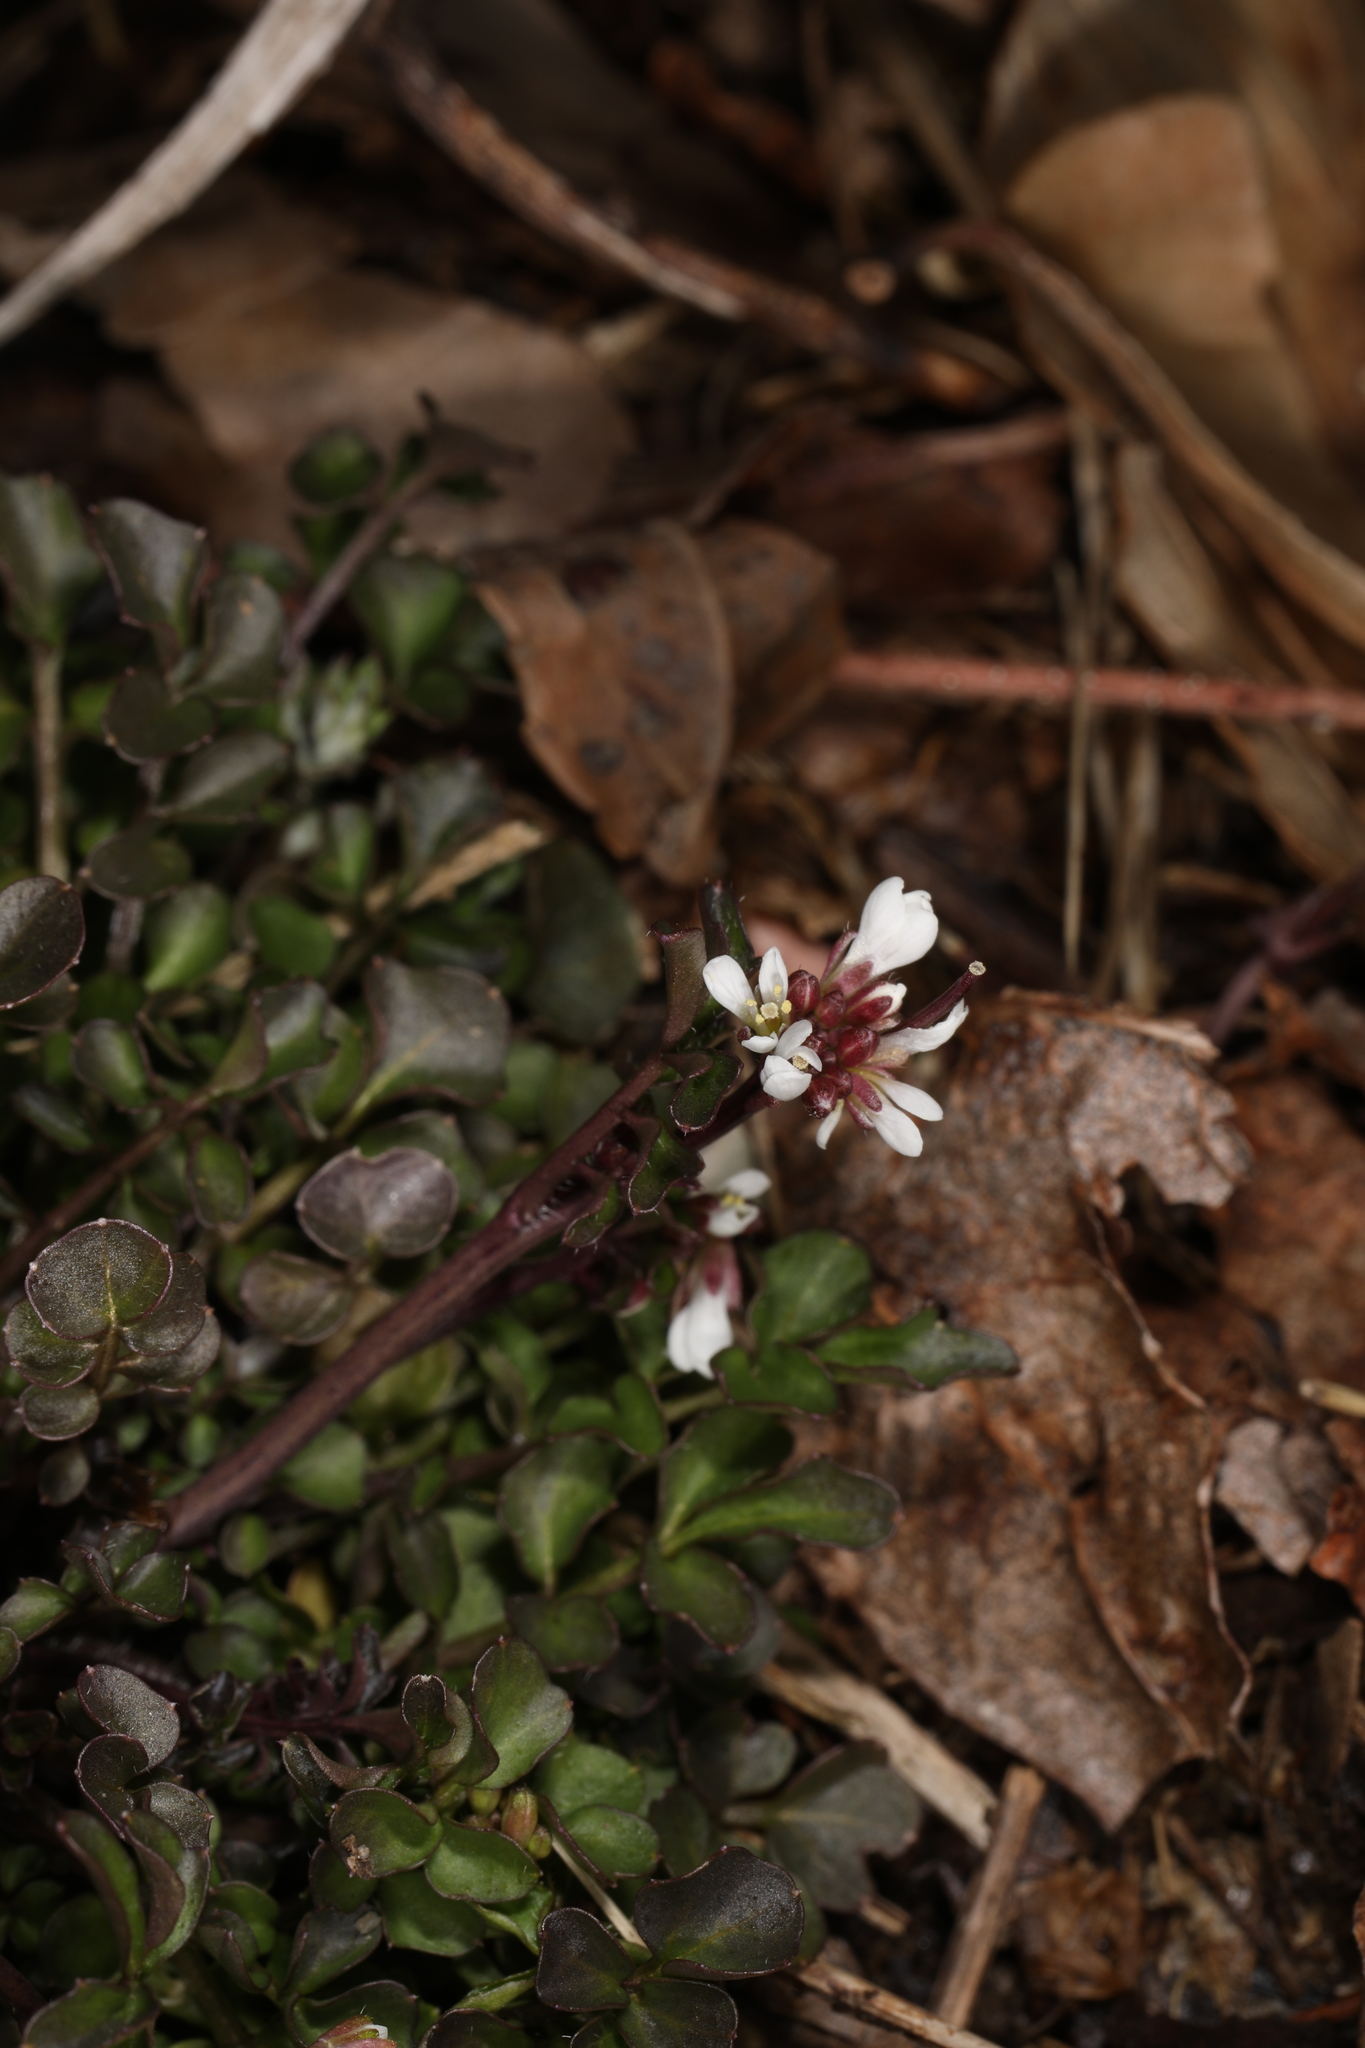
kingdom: Plantae
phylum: Tracheophyta
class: Magnoliopsida
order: Brassicales
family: Brassicaceae
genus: Cardamine
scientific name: Cardamine hirsuta
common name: Hairy bittercress
